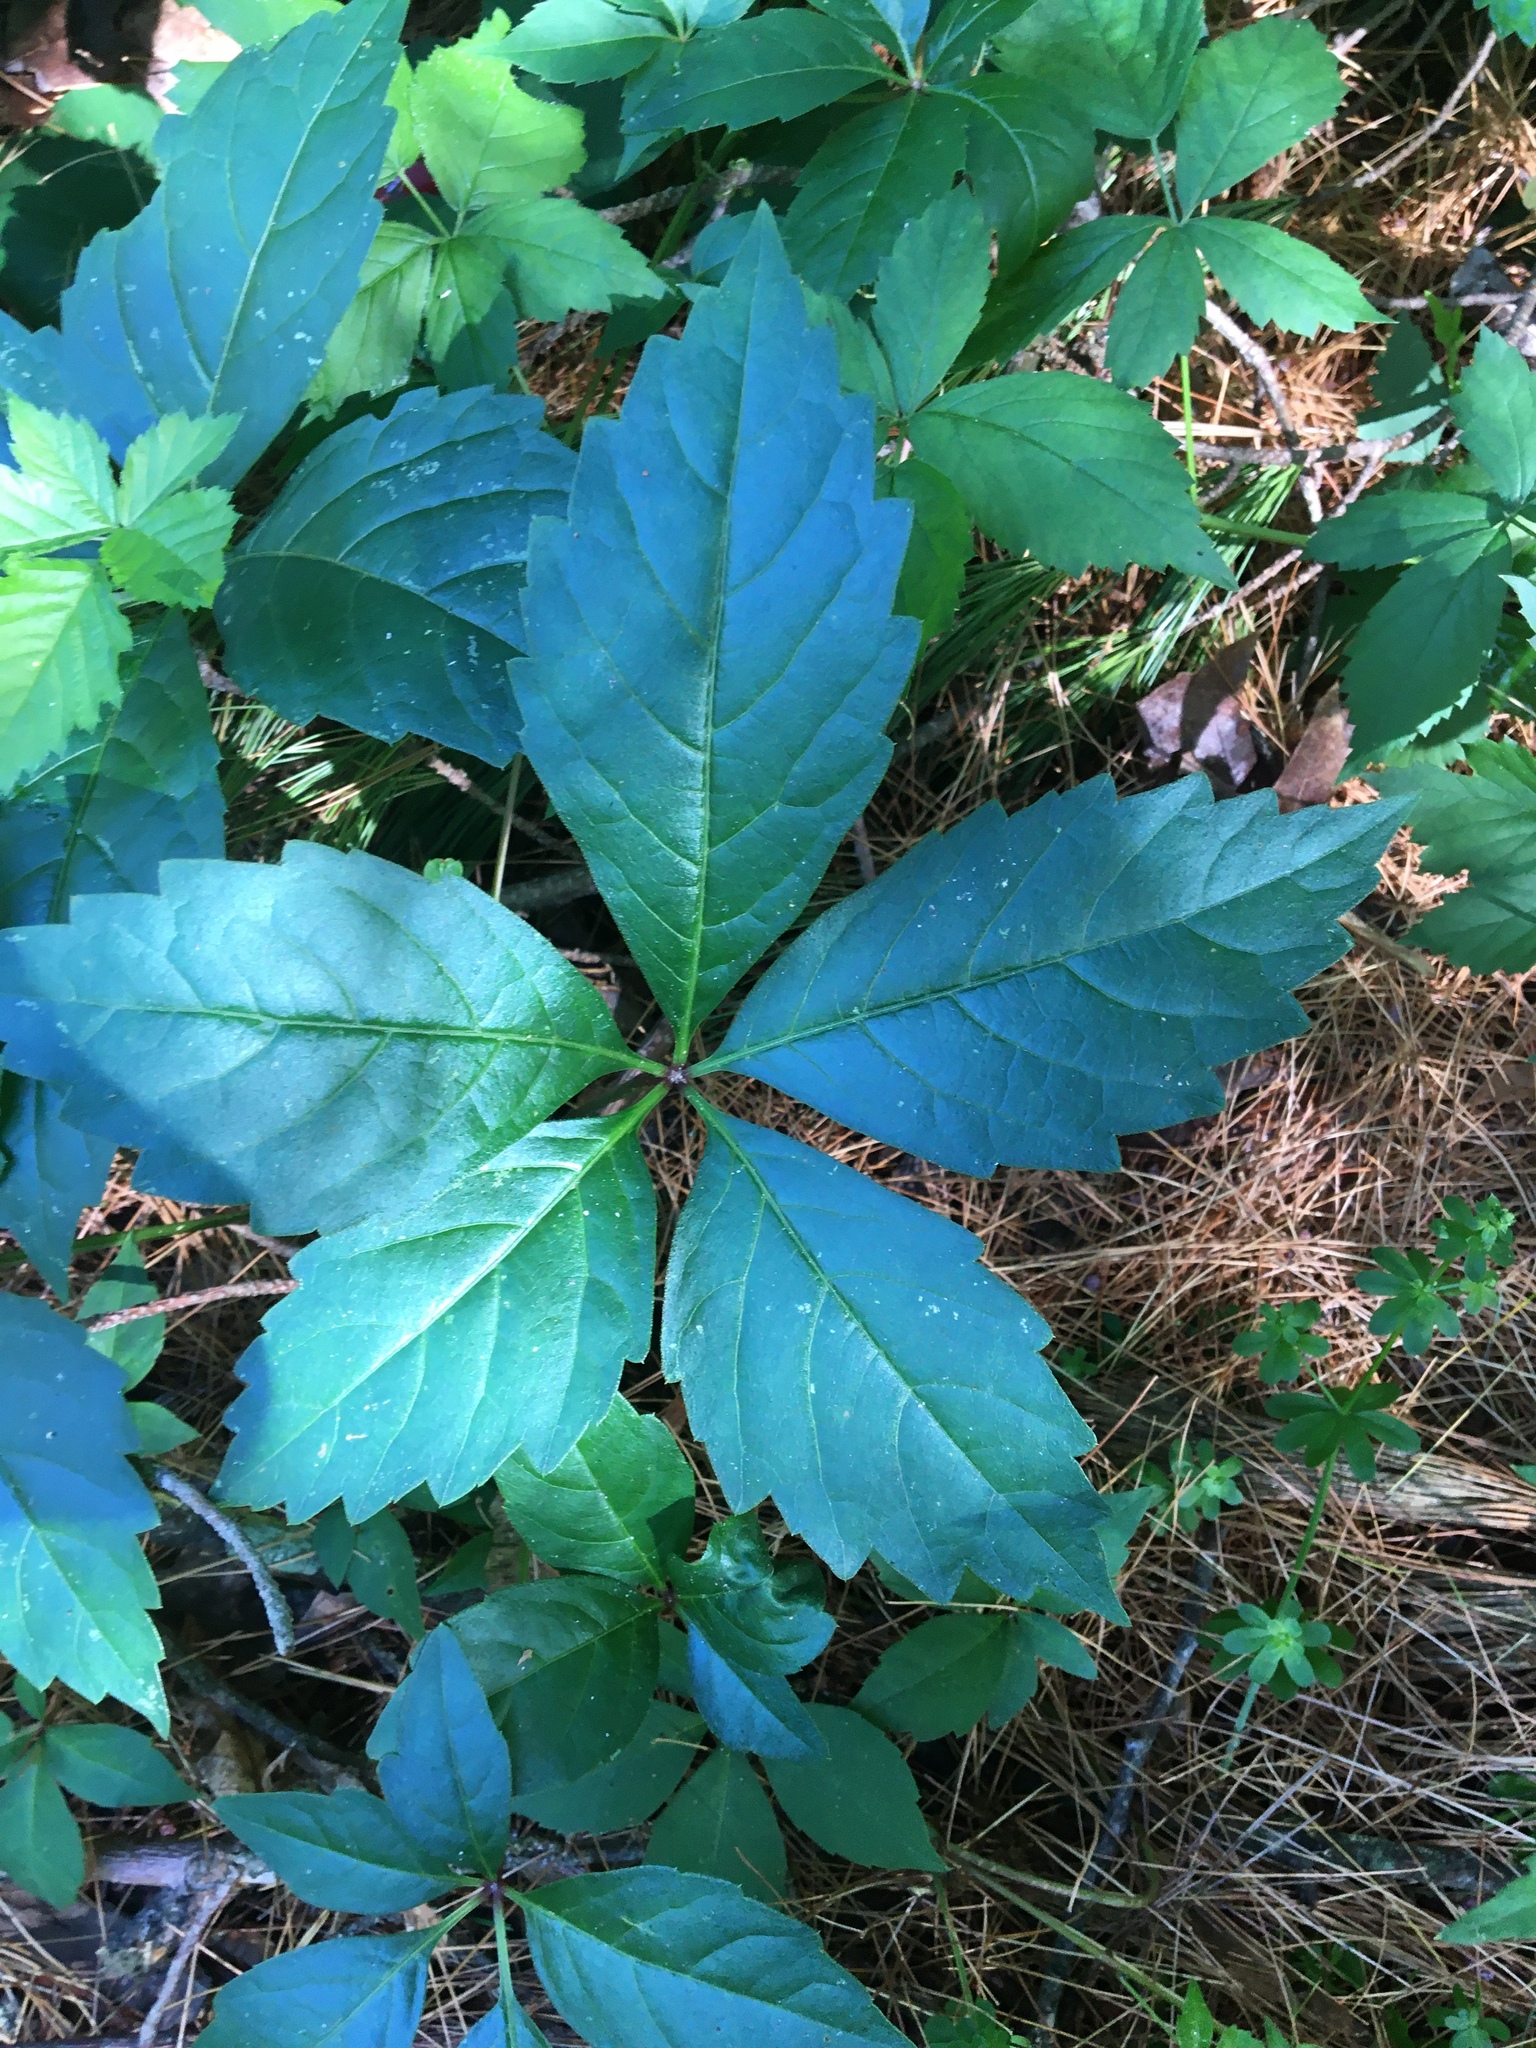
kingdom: Plantae
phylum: Tracheophyta
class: Magnoliopsida
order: Vitales
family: Vitaceae
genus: Parthenocissus
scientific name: Parthenocissus
